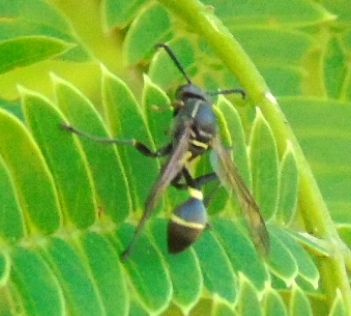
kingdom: Animalia
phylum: Arthropoda
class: Insecta
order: Hymenoptera
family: Vespidae
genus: Mischocyttarus
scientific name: Mischocyttarus
